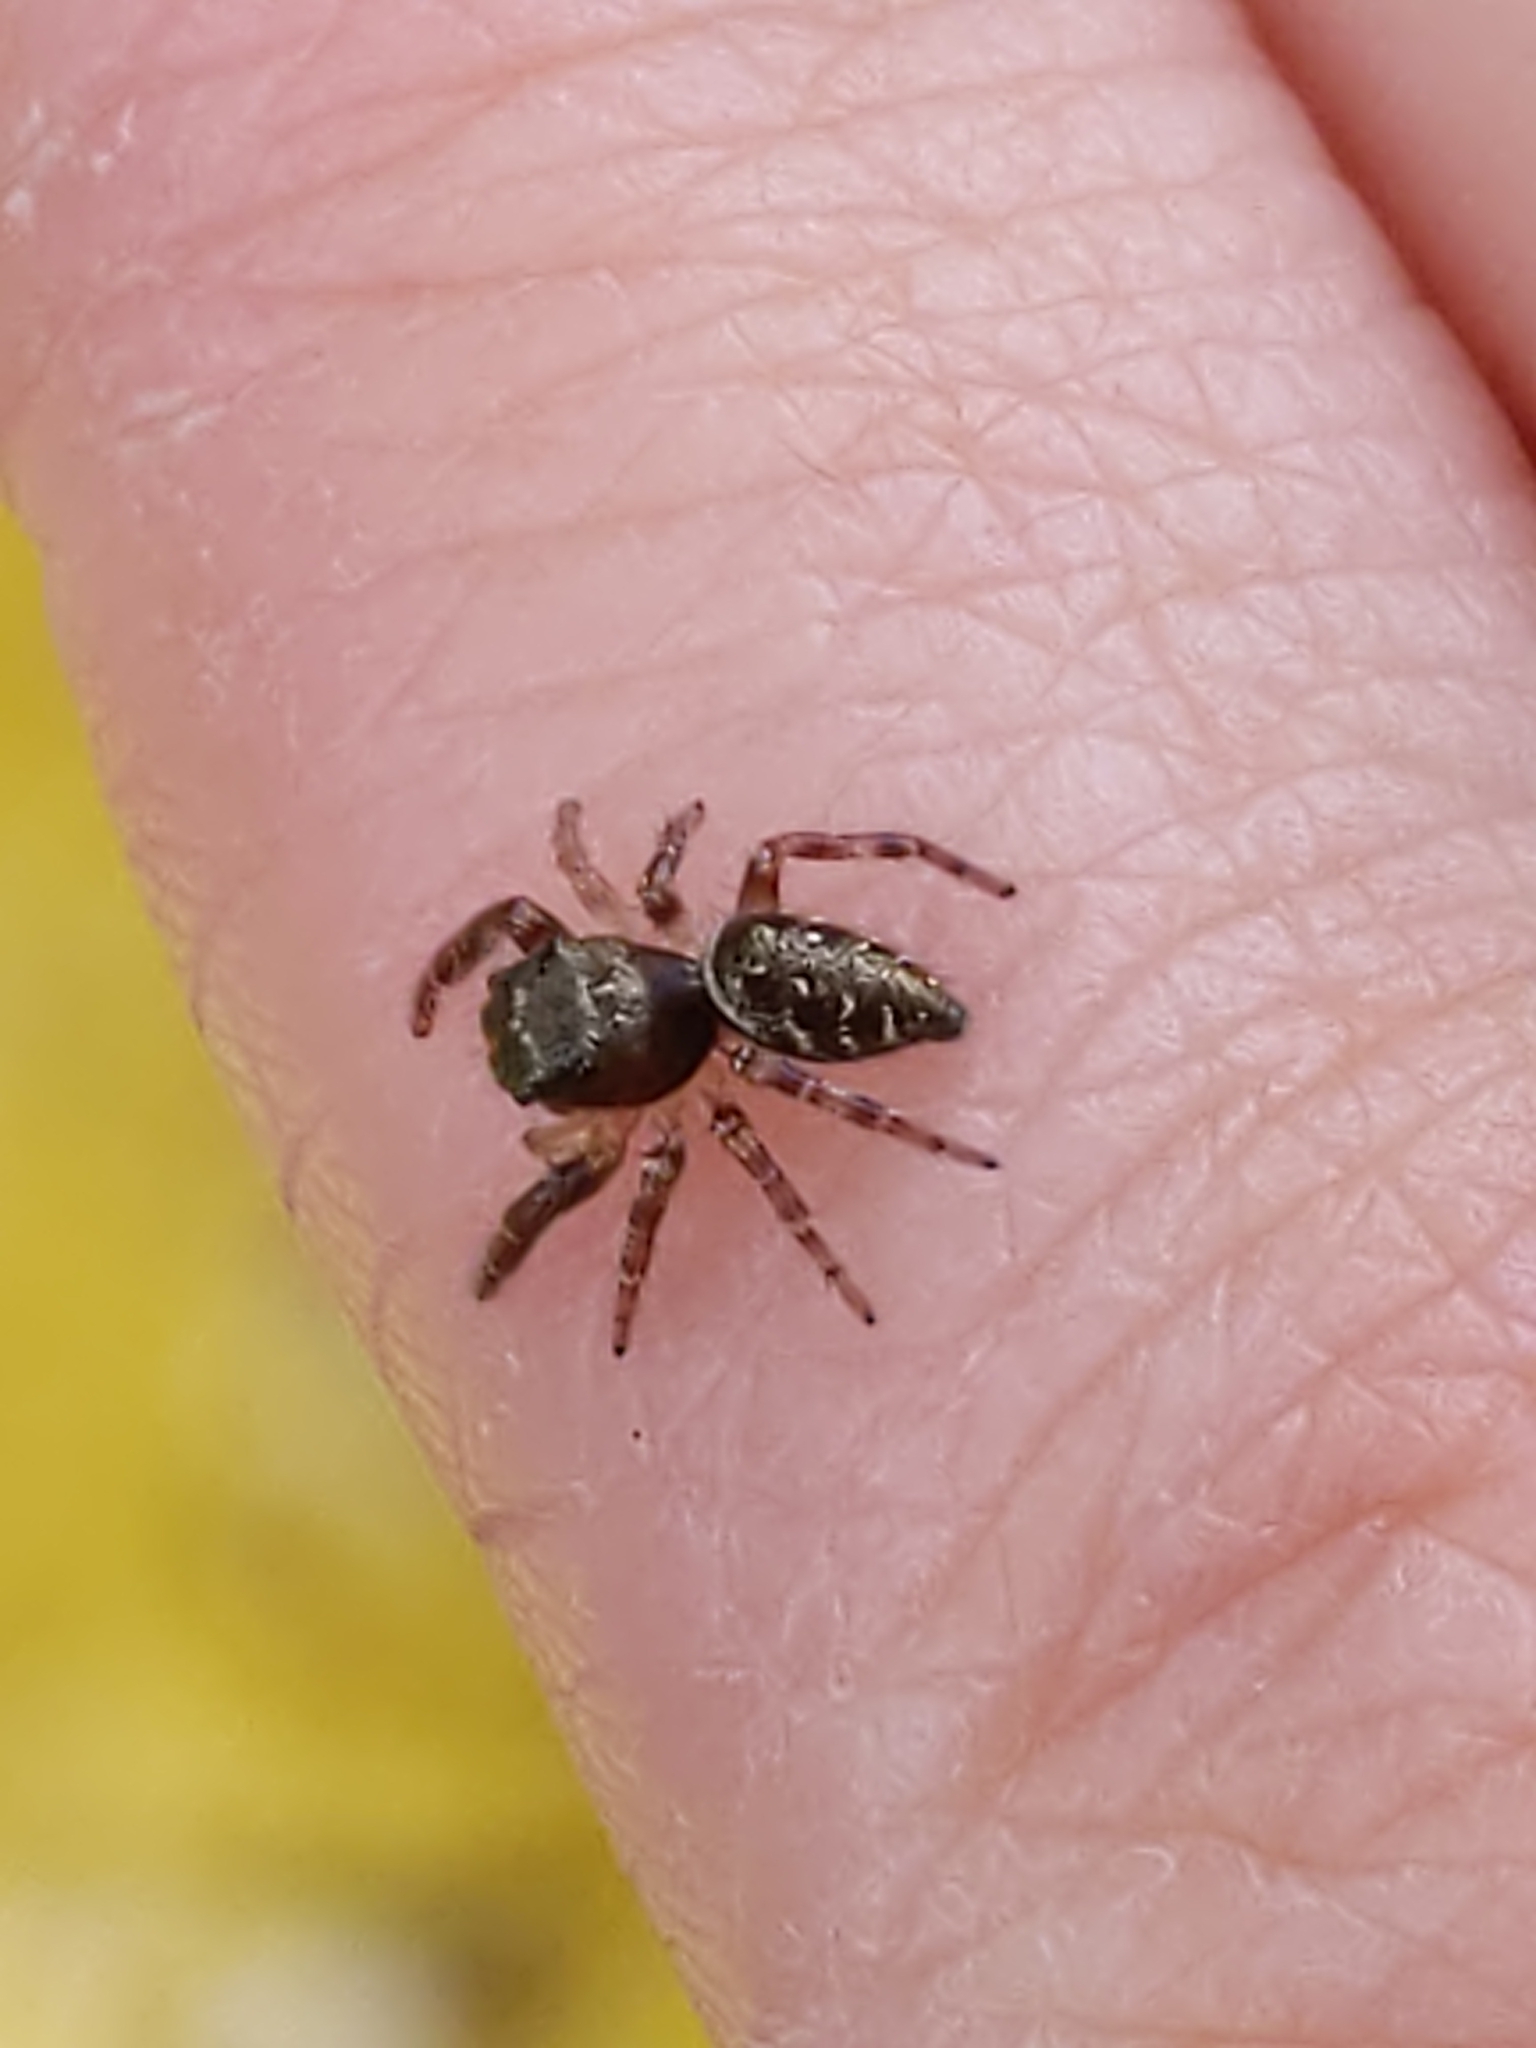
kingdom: Animalia
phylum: Arthropoda
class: Arachnida
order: Araneae
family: Salticidae
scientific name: Salticidae
